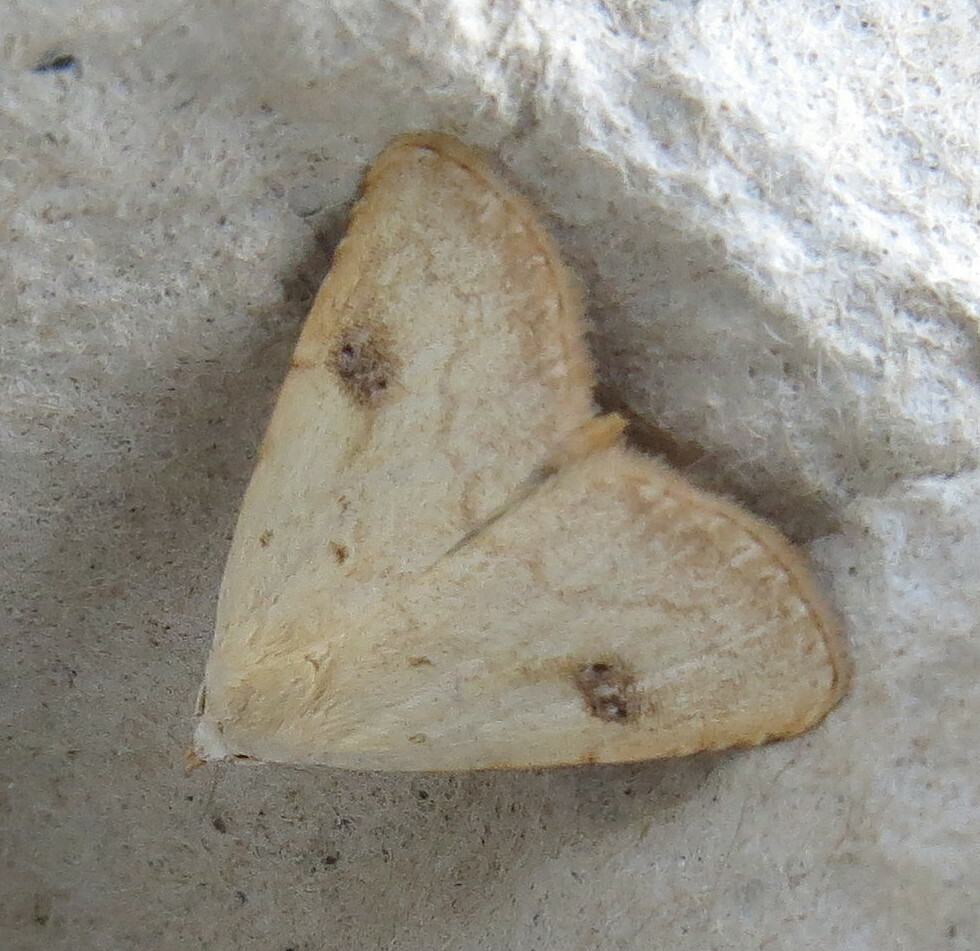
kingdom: Animalia
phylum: Arthropoda
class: Insecta
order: Lepidoptera
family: Erebidae
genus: Rivula
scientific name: Rivula sericealis
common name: Straw dot
